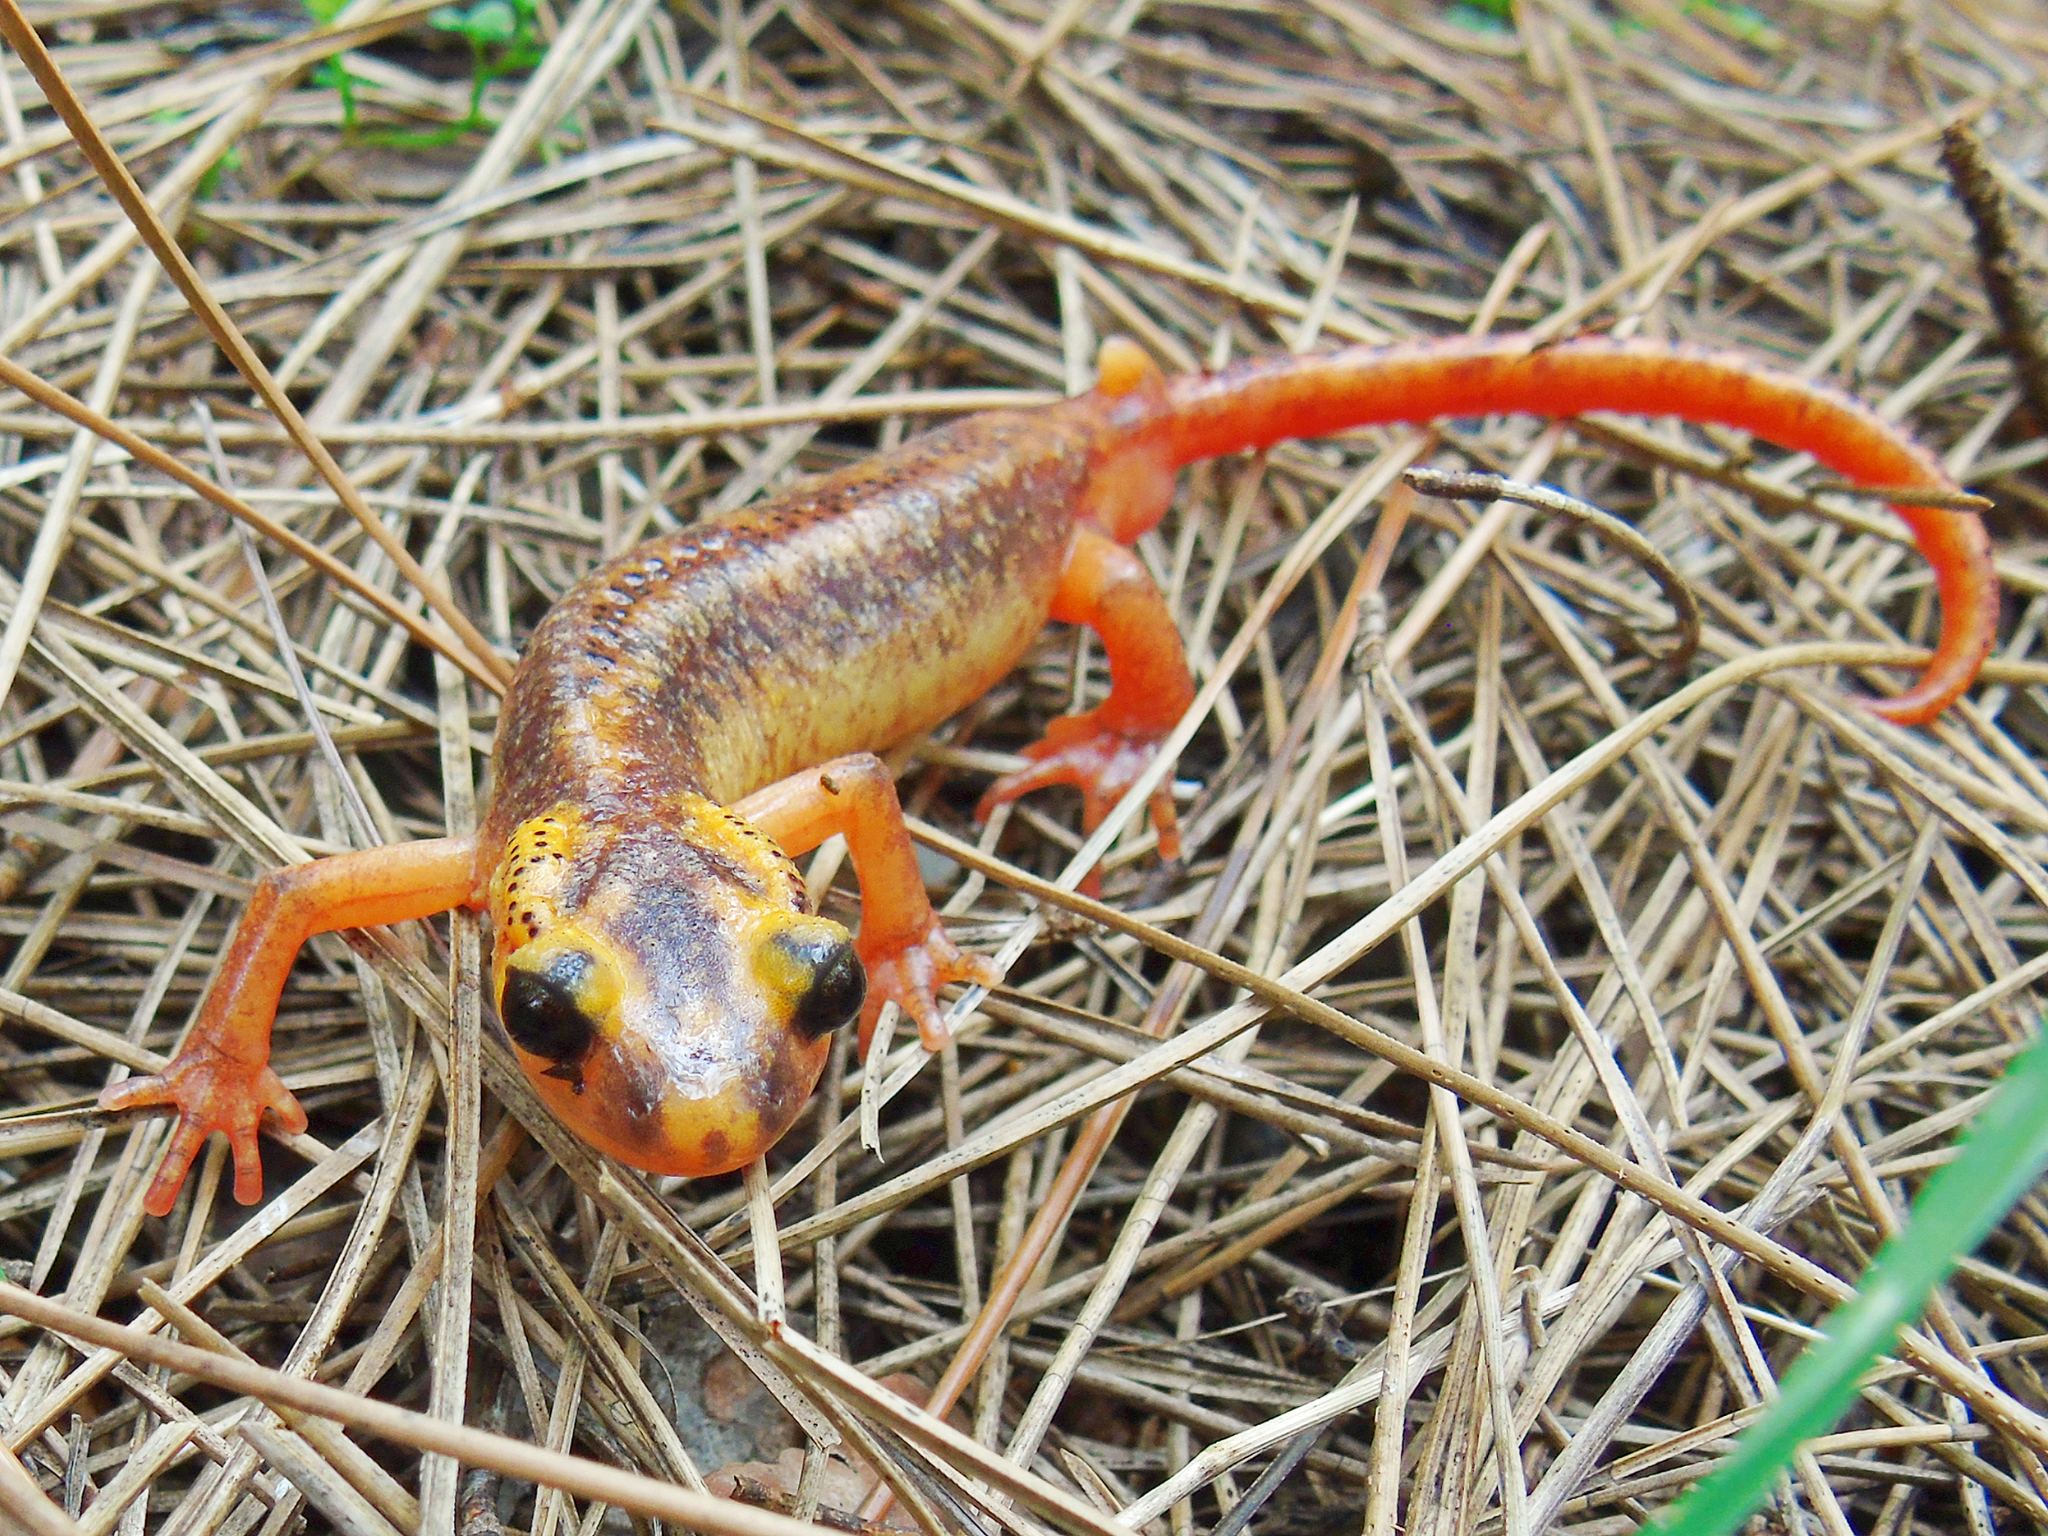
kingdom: Animalia
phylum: Chordata
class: Amphibia
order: Caudata
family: Salamandridae
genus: Lyciasalamandra
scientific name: Lyciasalamandra antalyana
